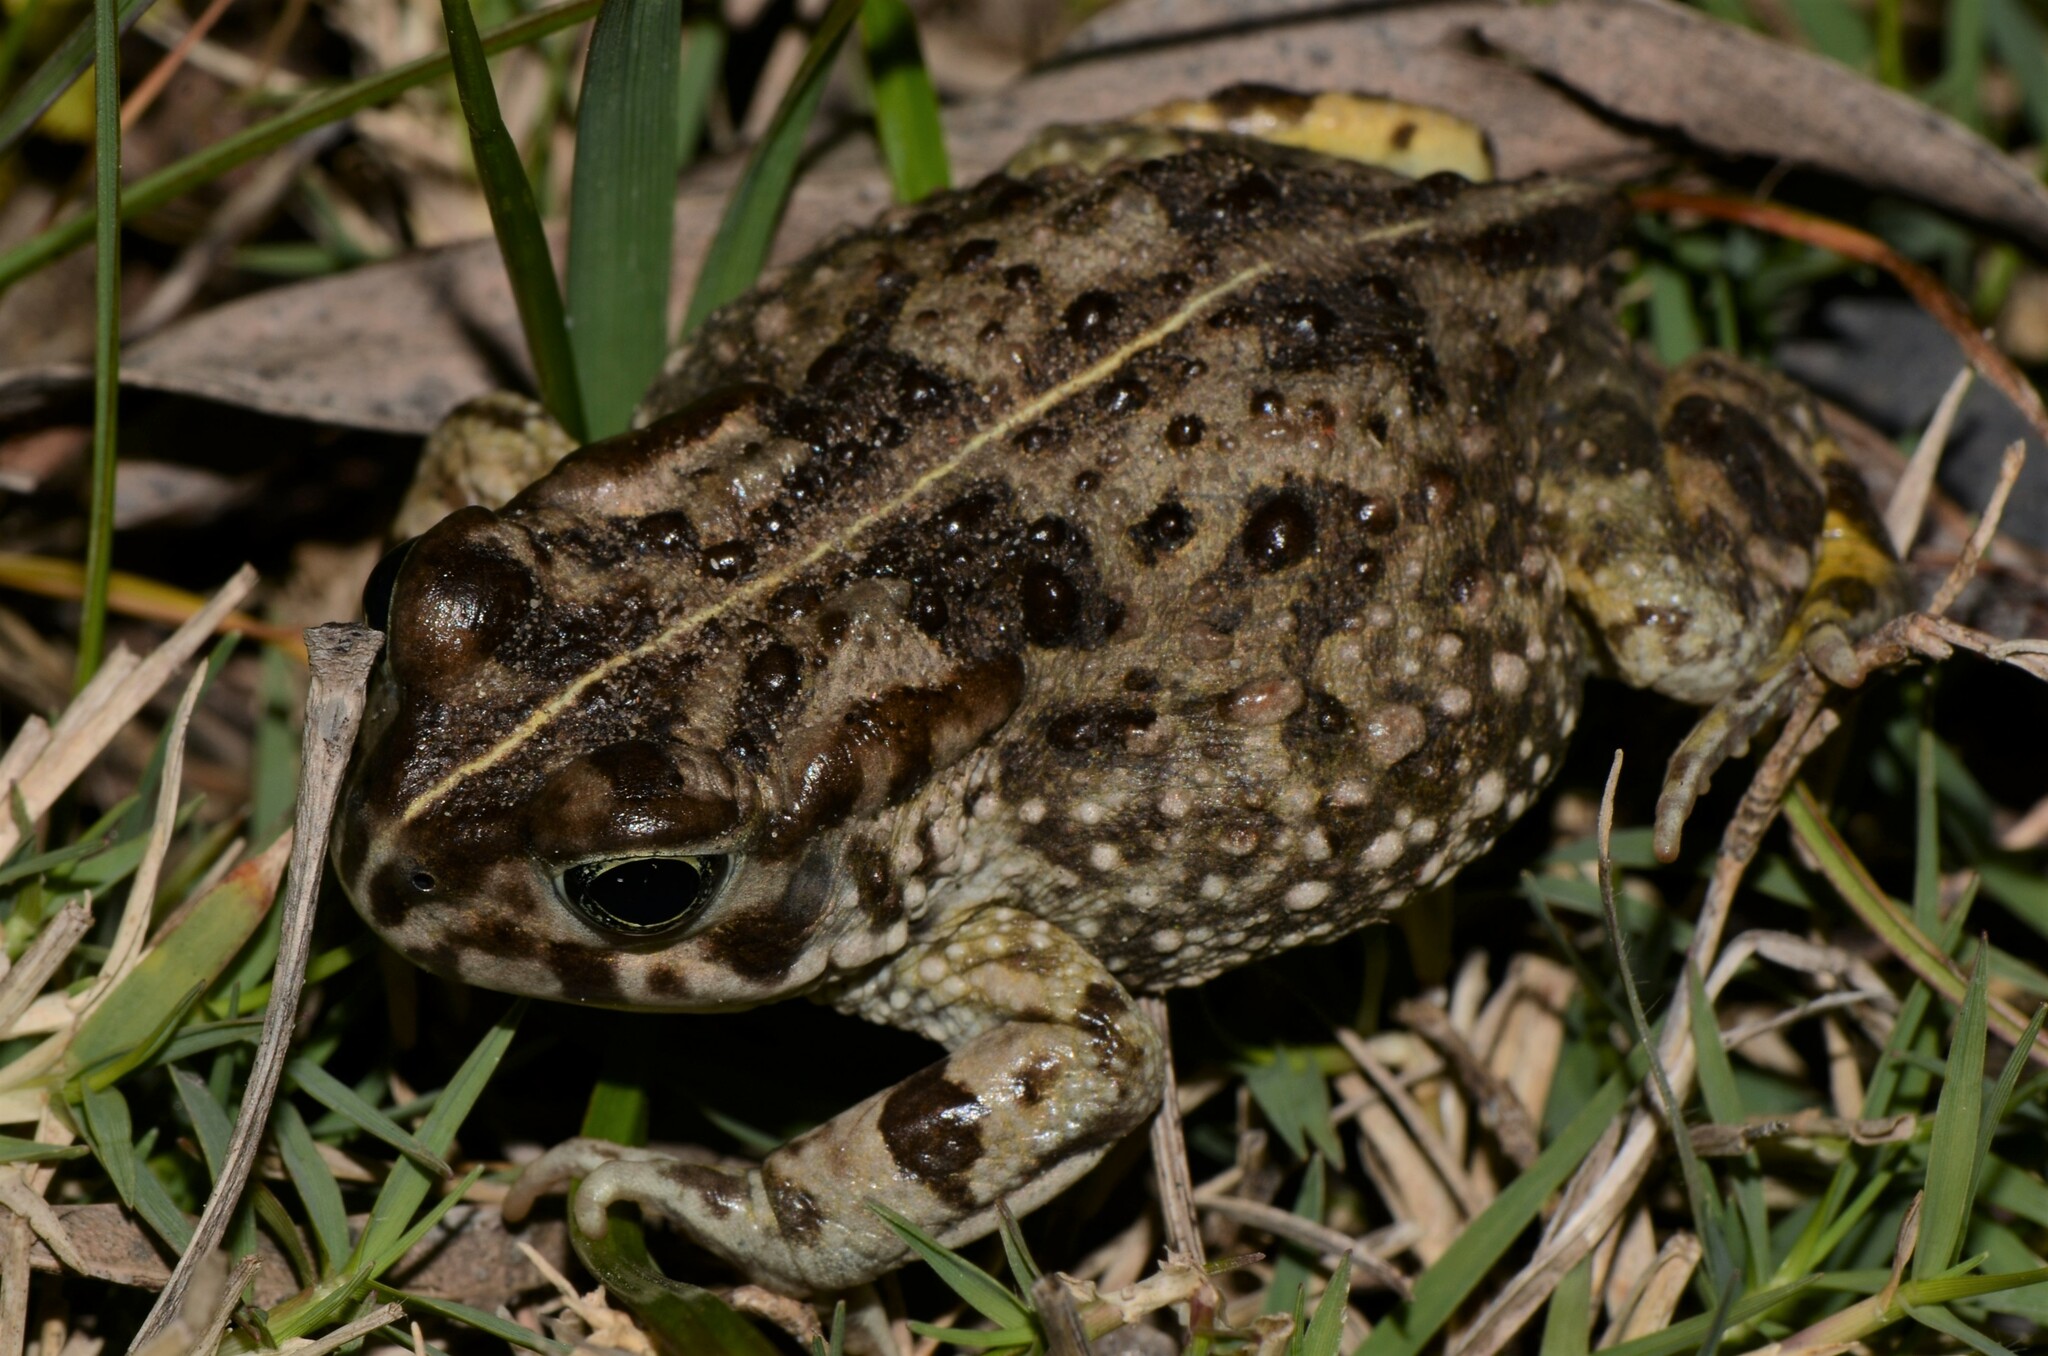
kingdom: Animalia
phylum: Chordata
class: Amphibia
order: Anura
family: Bufonidae
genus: Vandijkophrynus
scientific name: Vandijkophrynus angusticeps
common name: Sand toad
